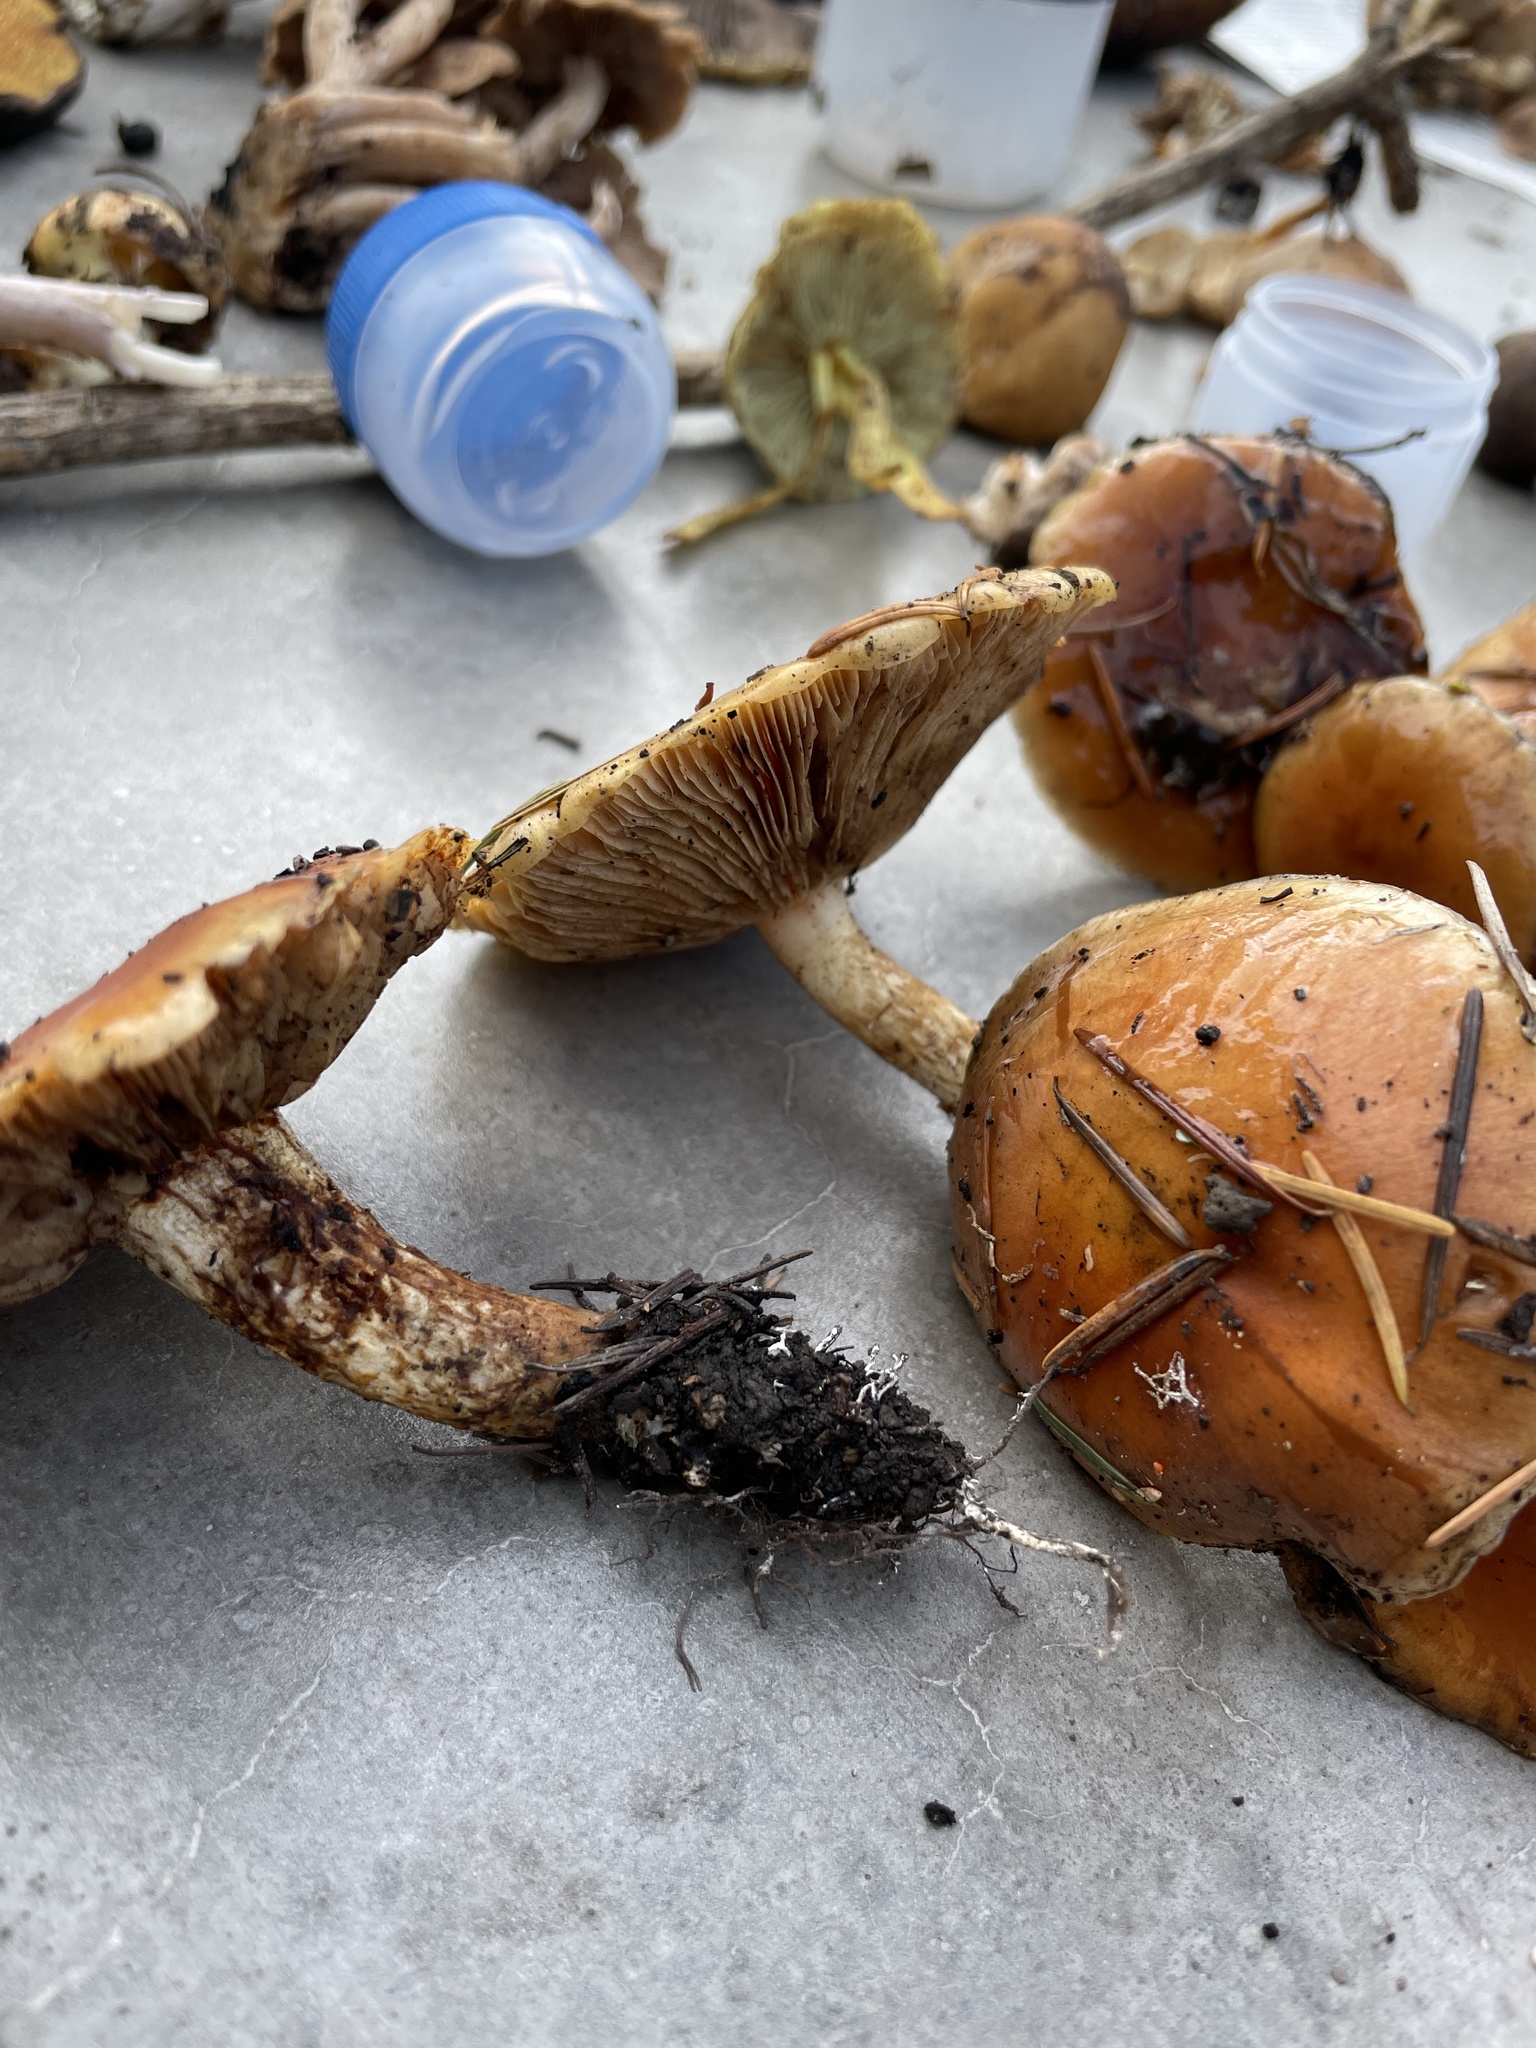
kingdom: Fungi
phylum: Basidiomycota
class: Agaricomycetes
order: Agaricales
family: Strophariaceae
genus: Pholiota
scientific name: Pholiota molesta
